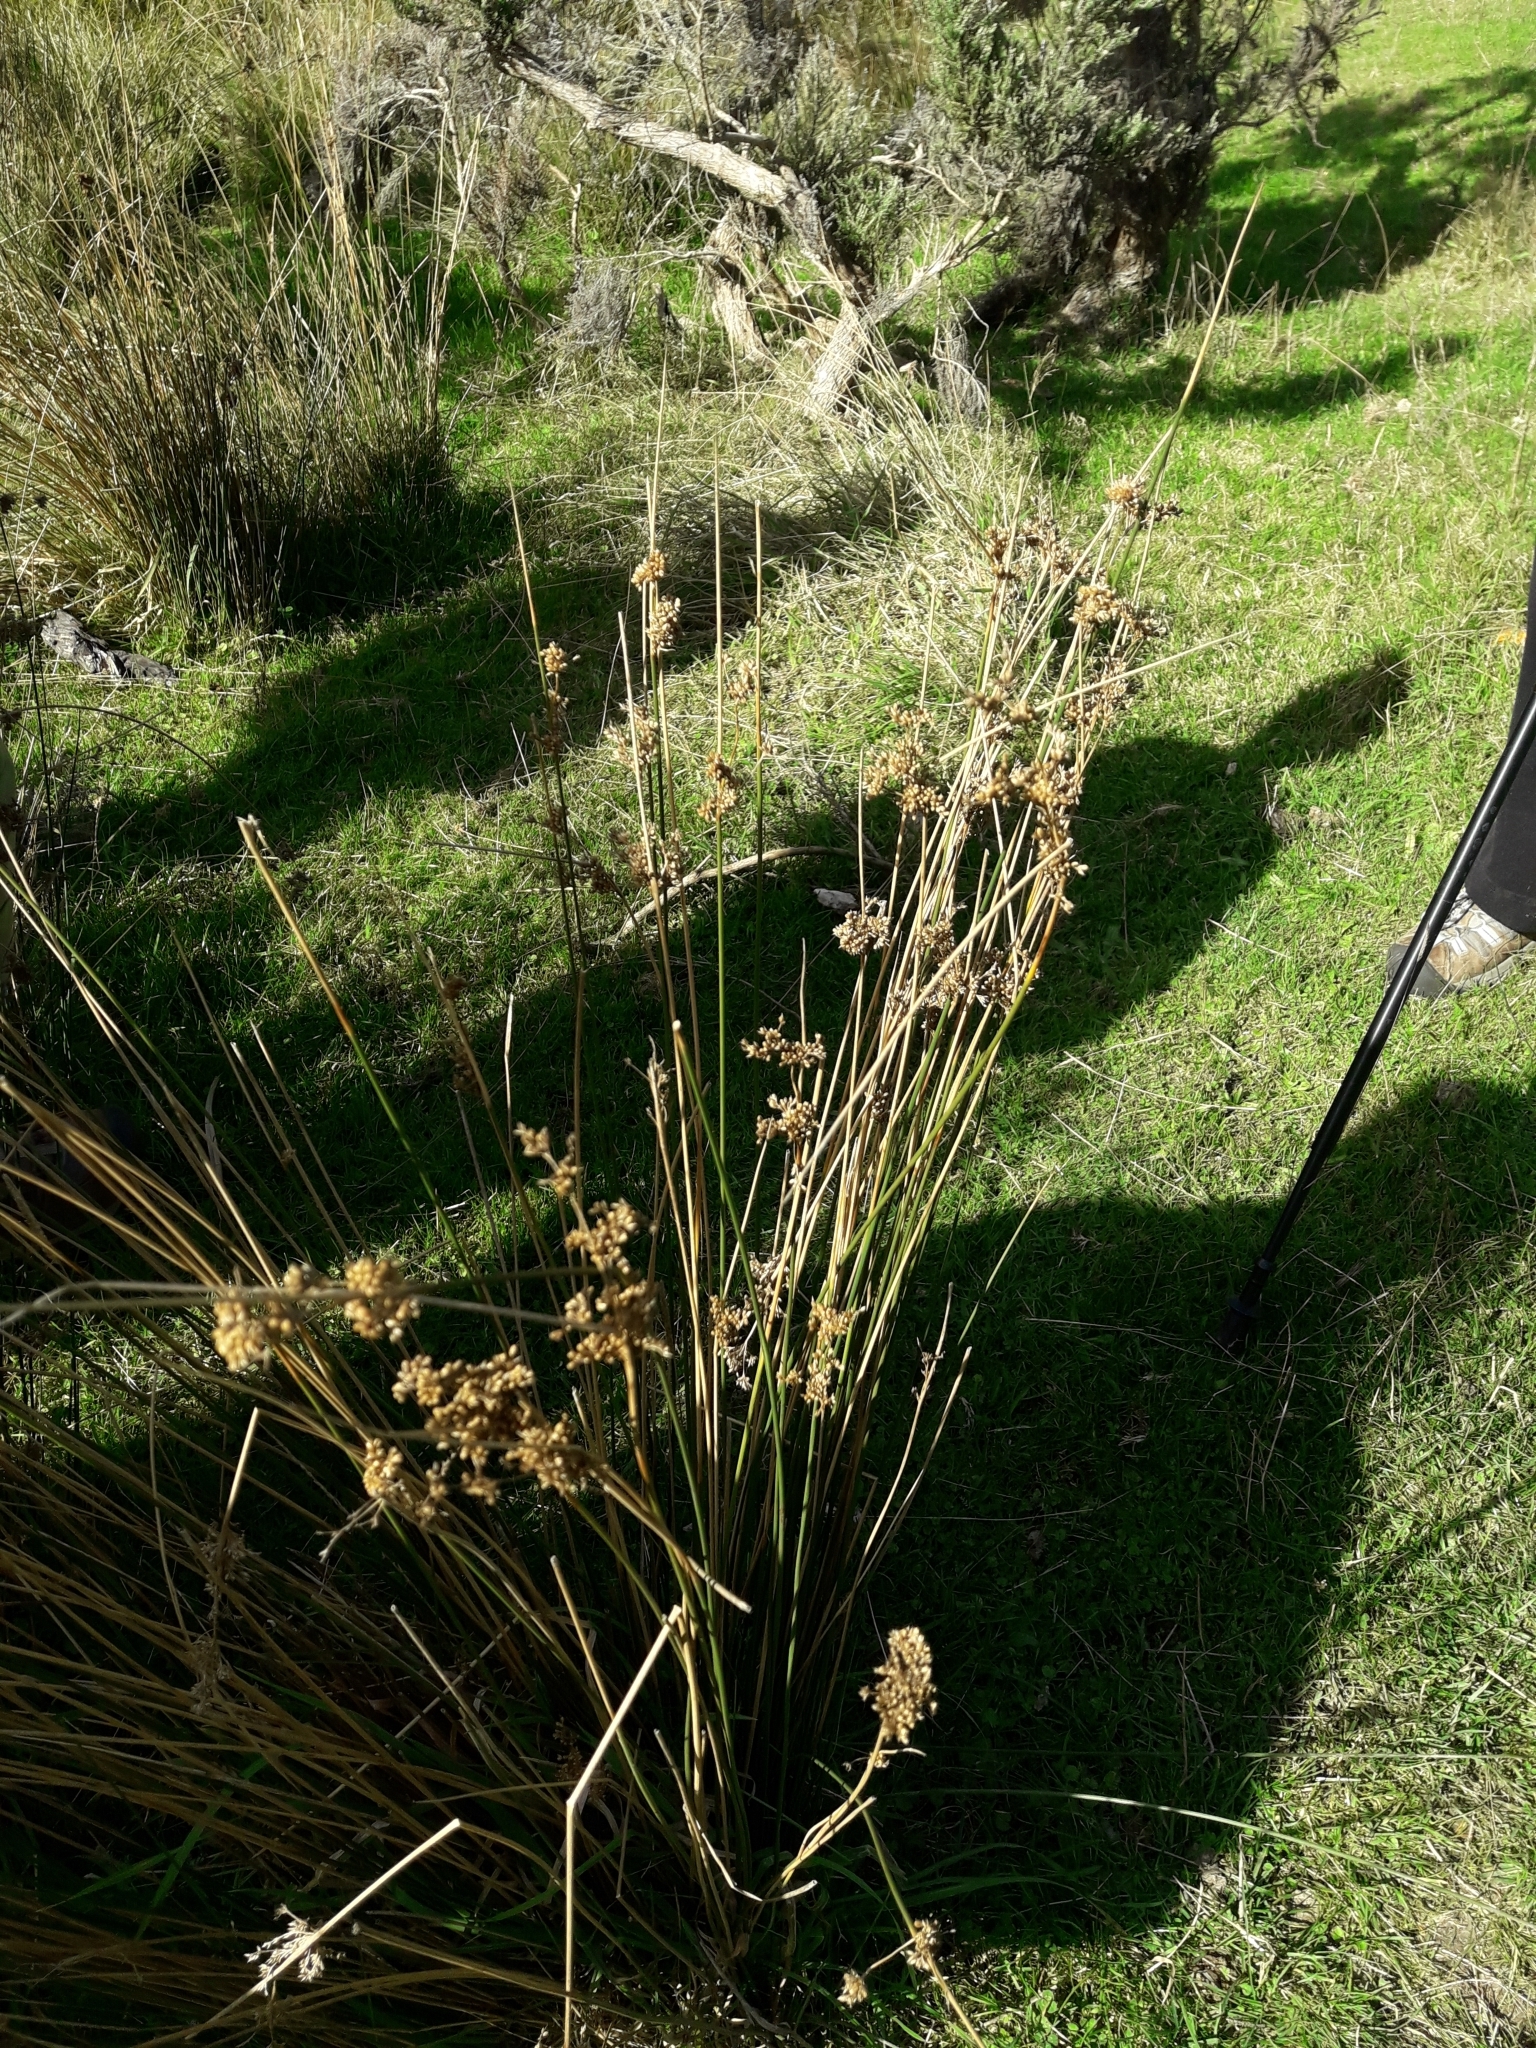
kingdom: Plantae
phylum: Tracheophyta
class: Liliopsida
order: Poales
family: Juncaceae
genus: Juncus
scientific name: Juncus edgariae
